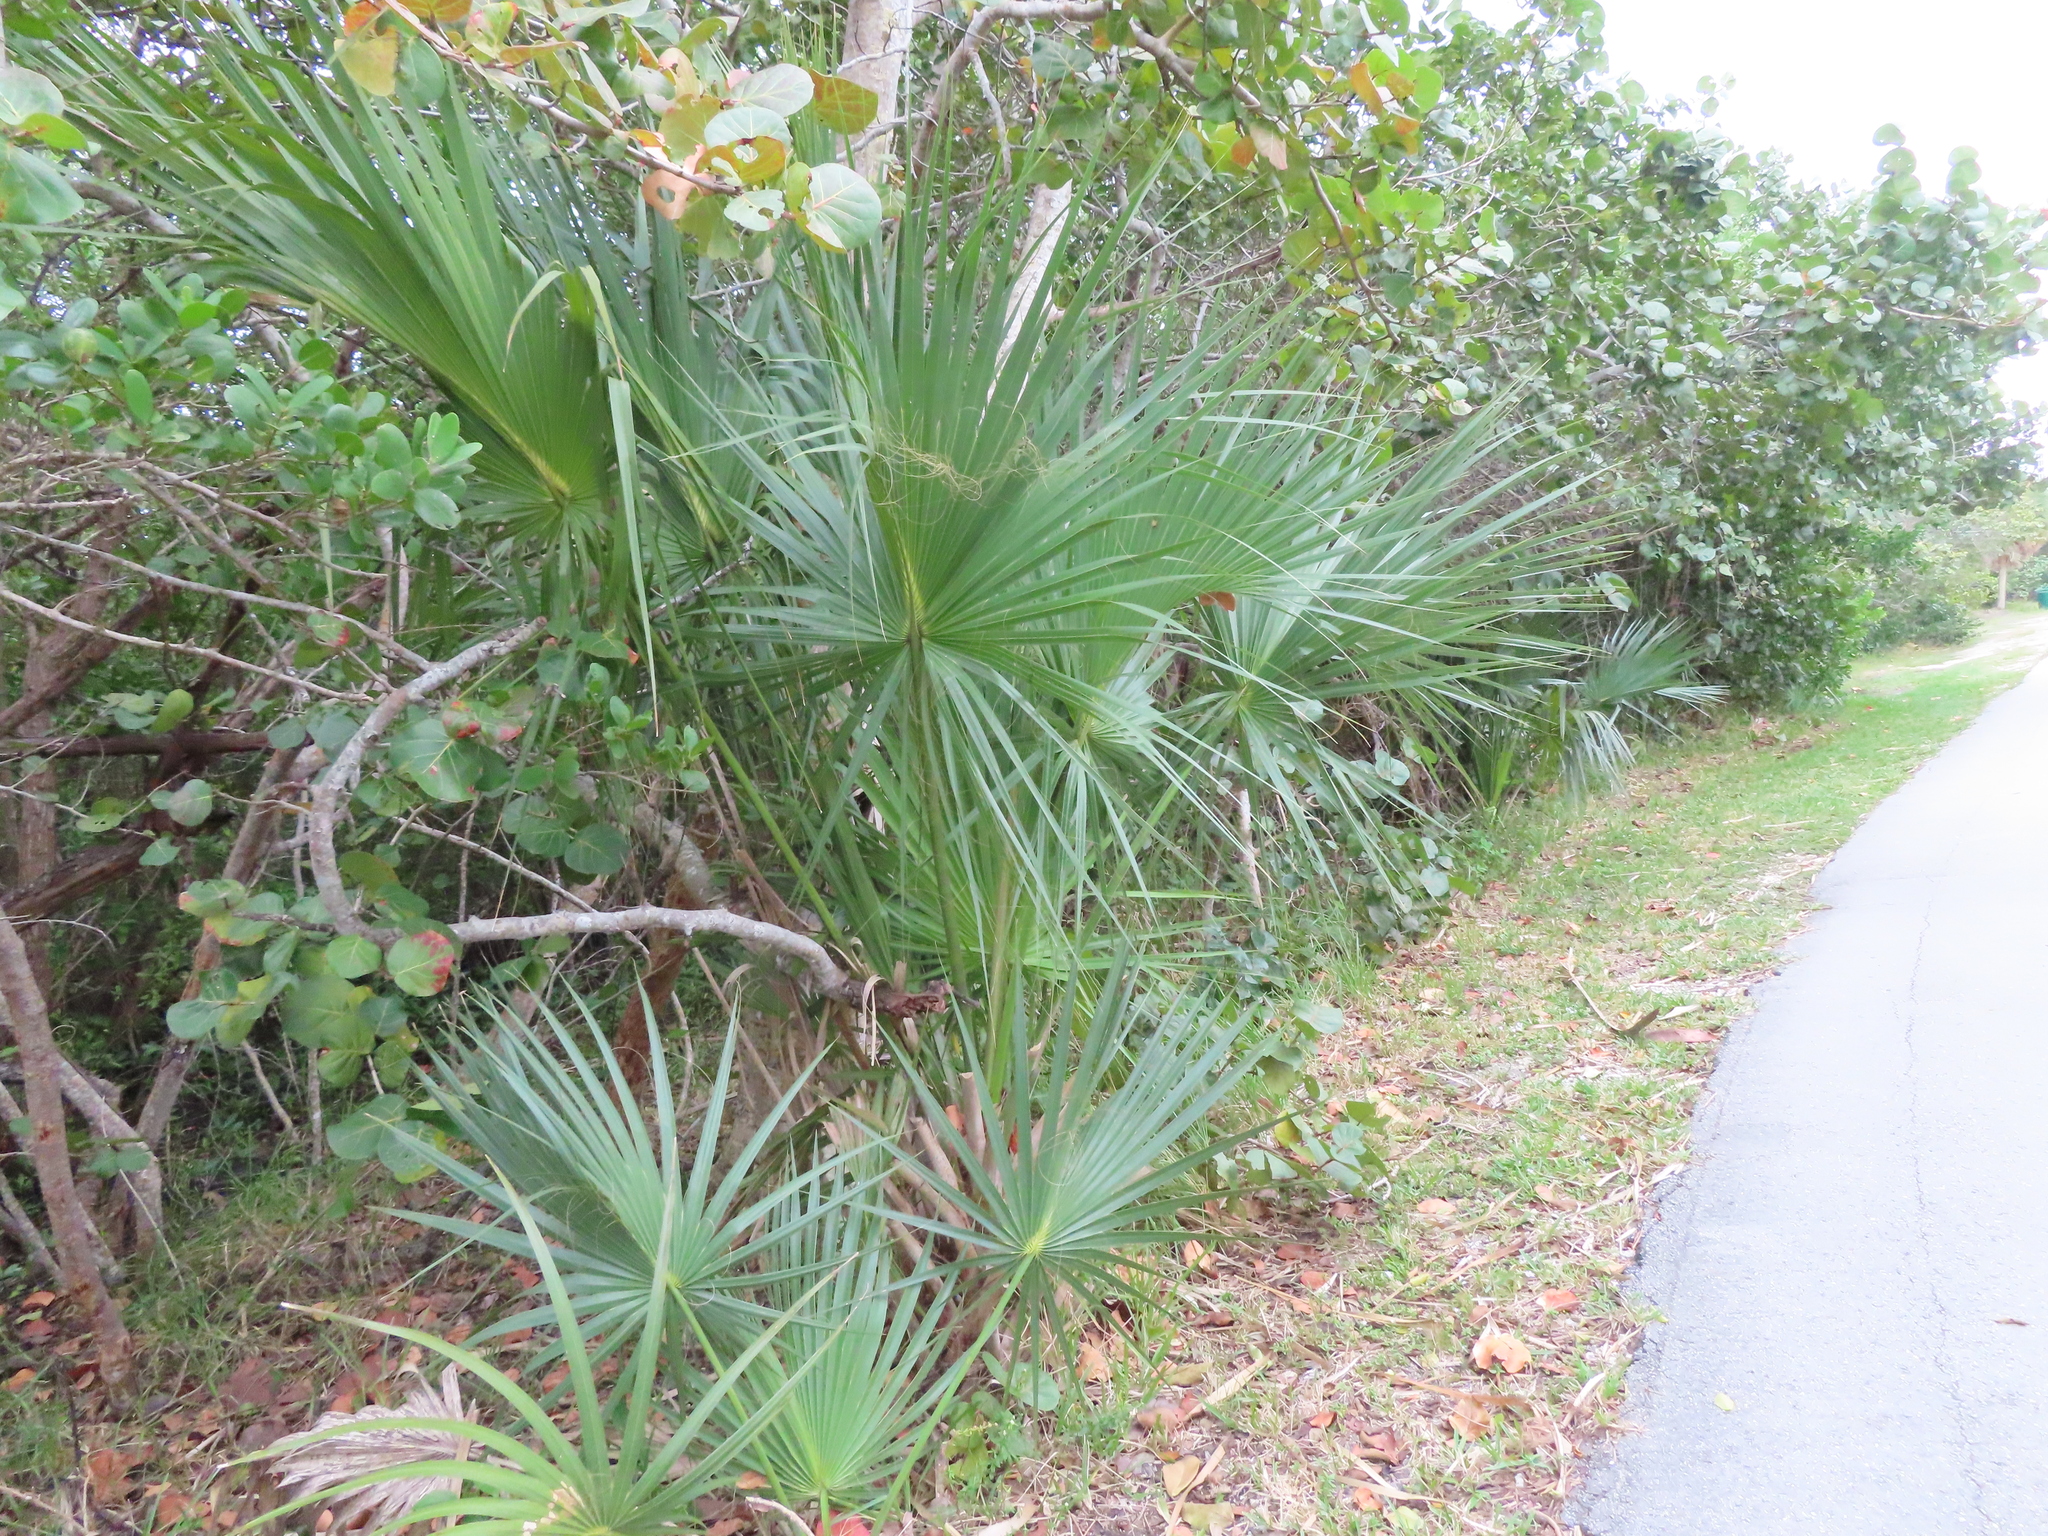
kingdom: Plantae
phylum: Tracheophyta
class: Liliopsida
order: Arecales
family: Arecaceae
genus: Sabal
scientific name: Sabal palmetto
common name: Blue palmetto
